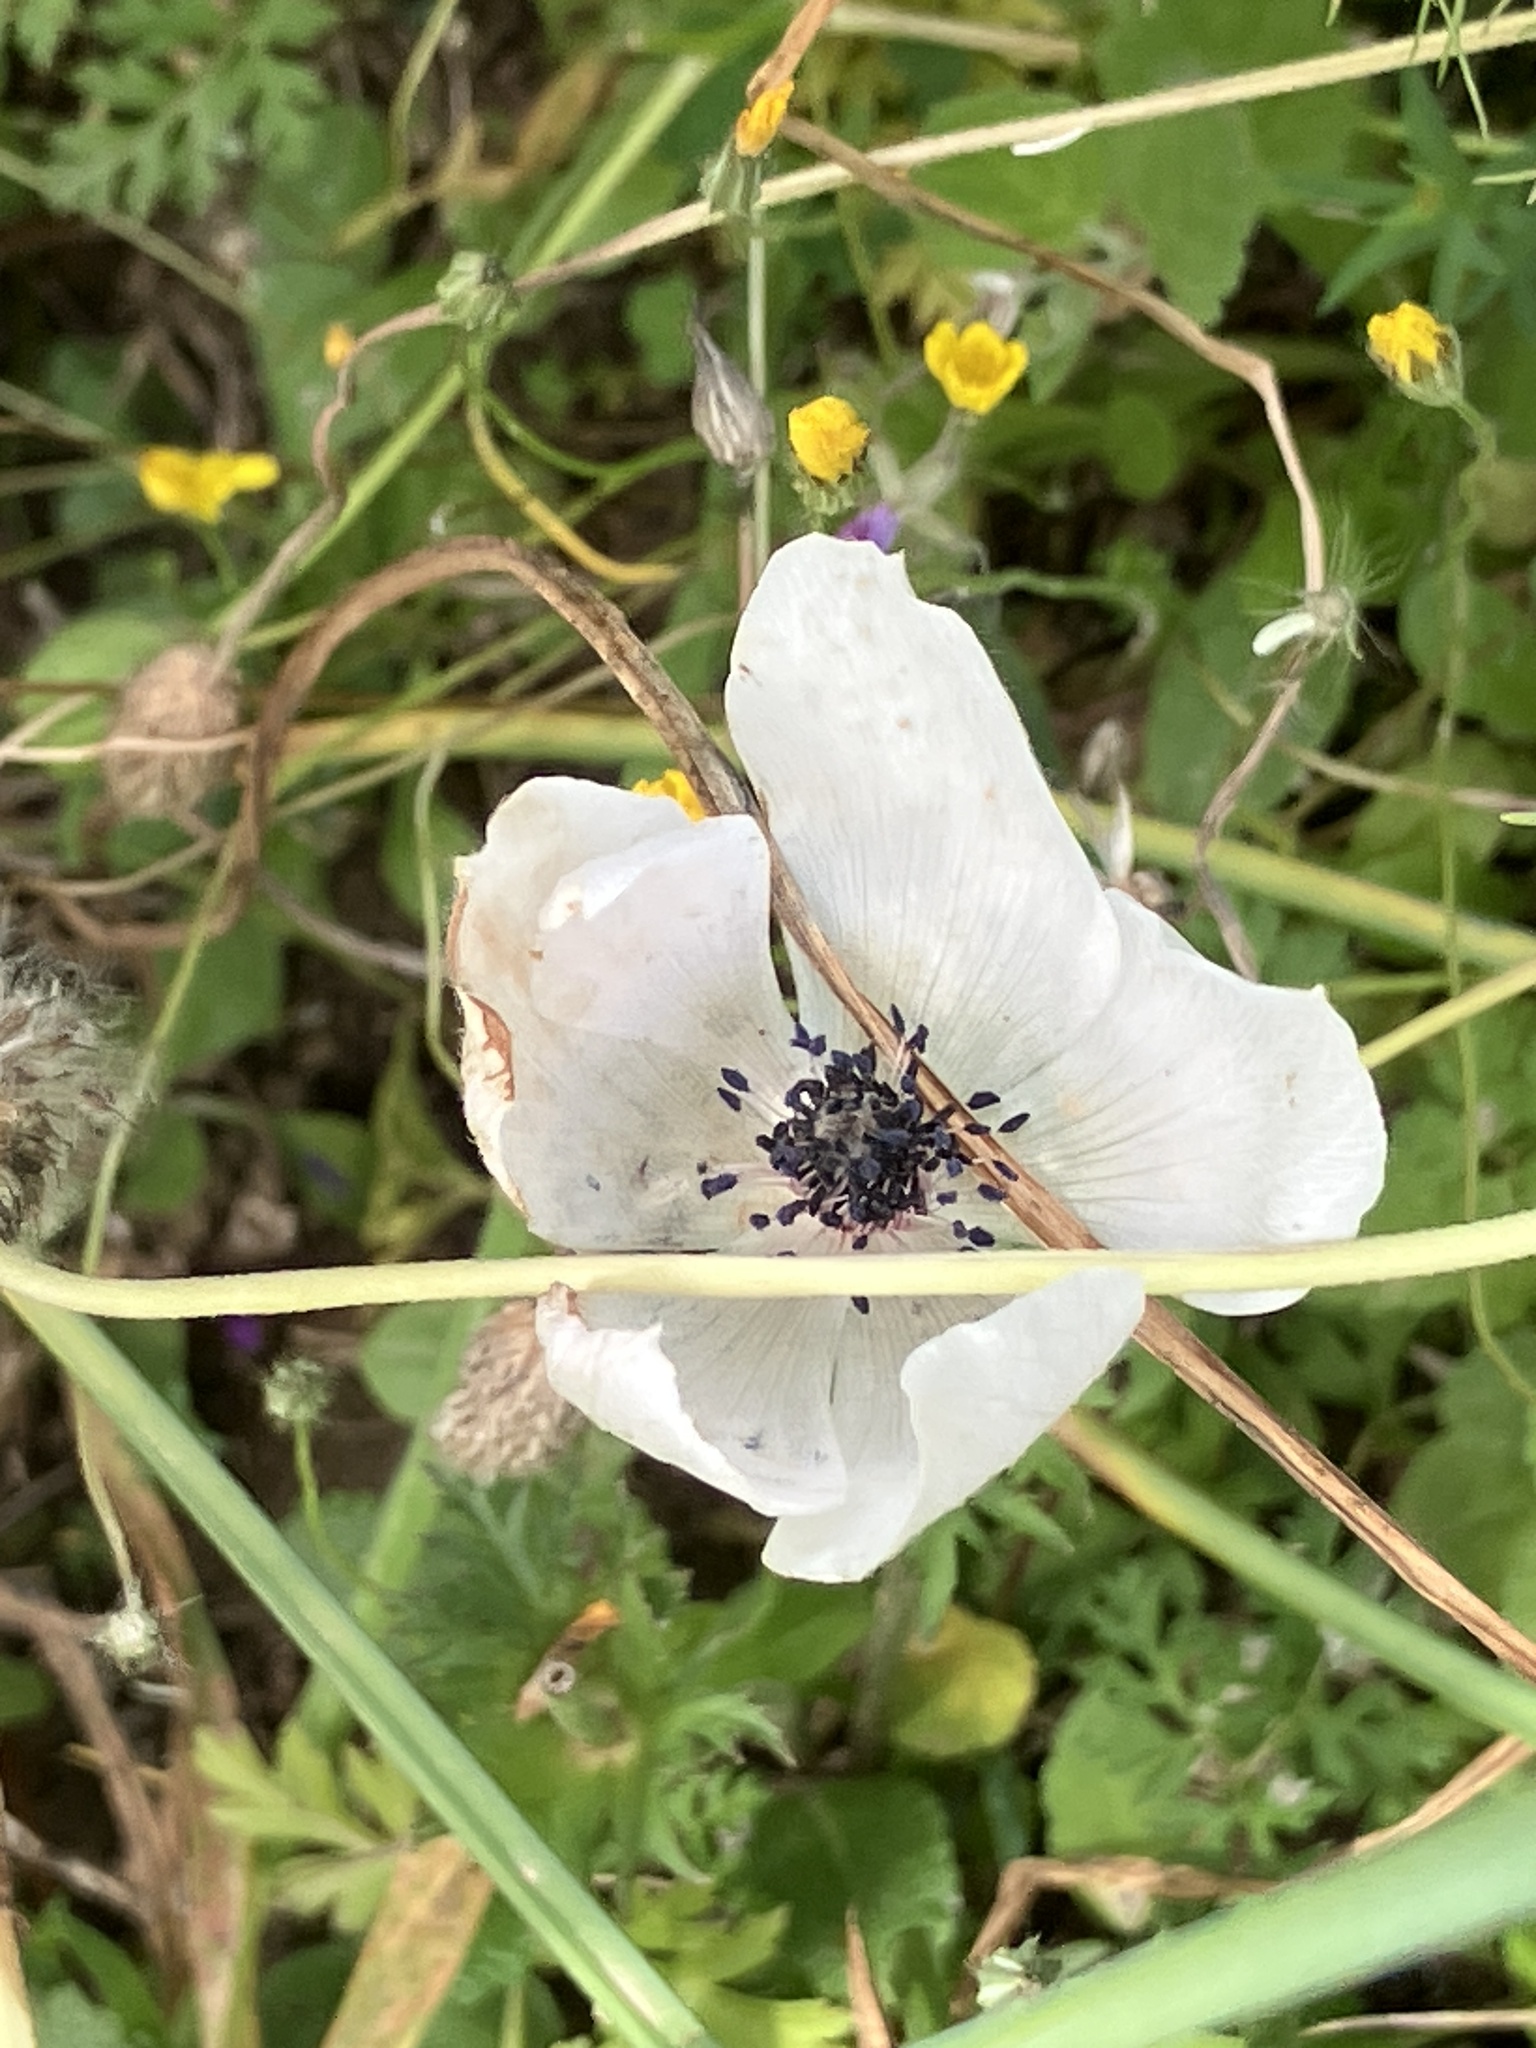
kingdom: Plantae
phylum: Tracheophyta
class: Magnoliopsida
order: Ranunculales
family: Ranunculaceae
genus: Anemone
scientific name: Anemone coronaria
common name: Poppy anemone
